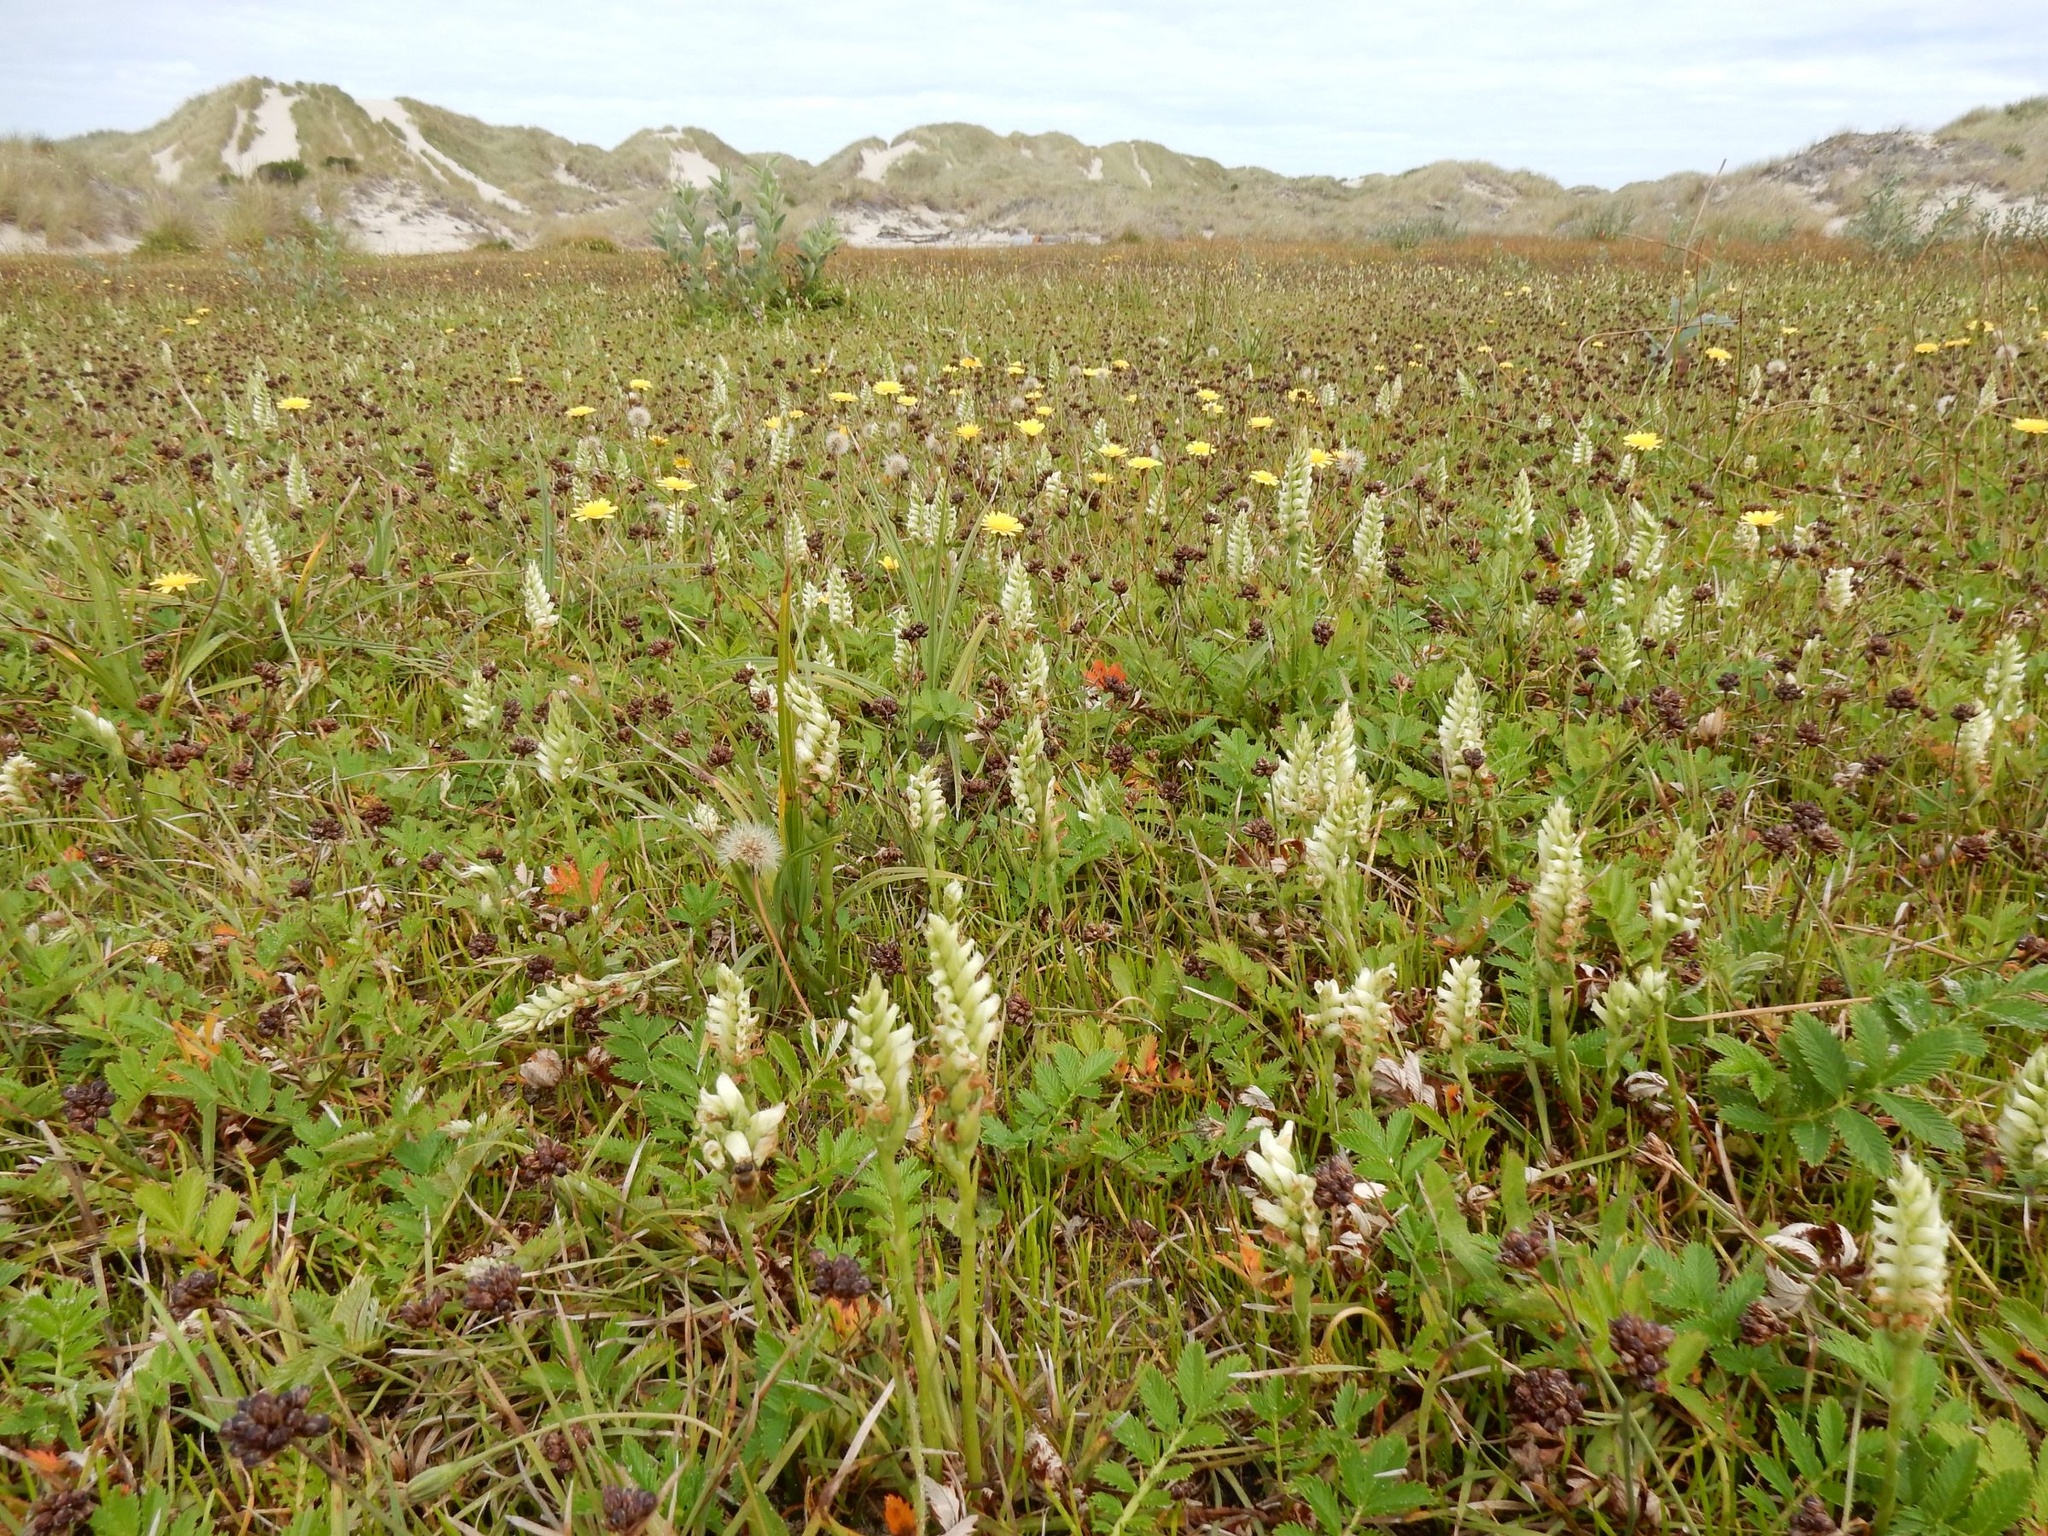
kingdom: Plantae
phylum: Tracheophyta
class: Liliopsida
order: Asparagales
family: Orchidaceae
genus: Spiranthes
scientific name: Spiranthes romanzoffiana
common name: Irish lady's-tresses
